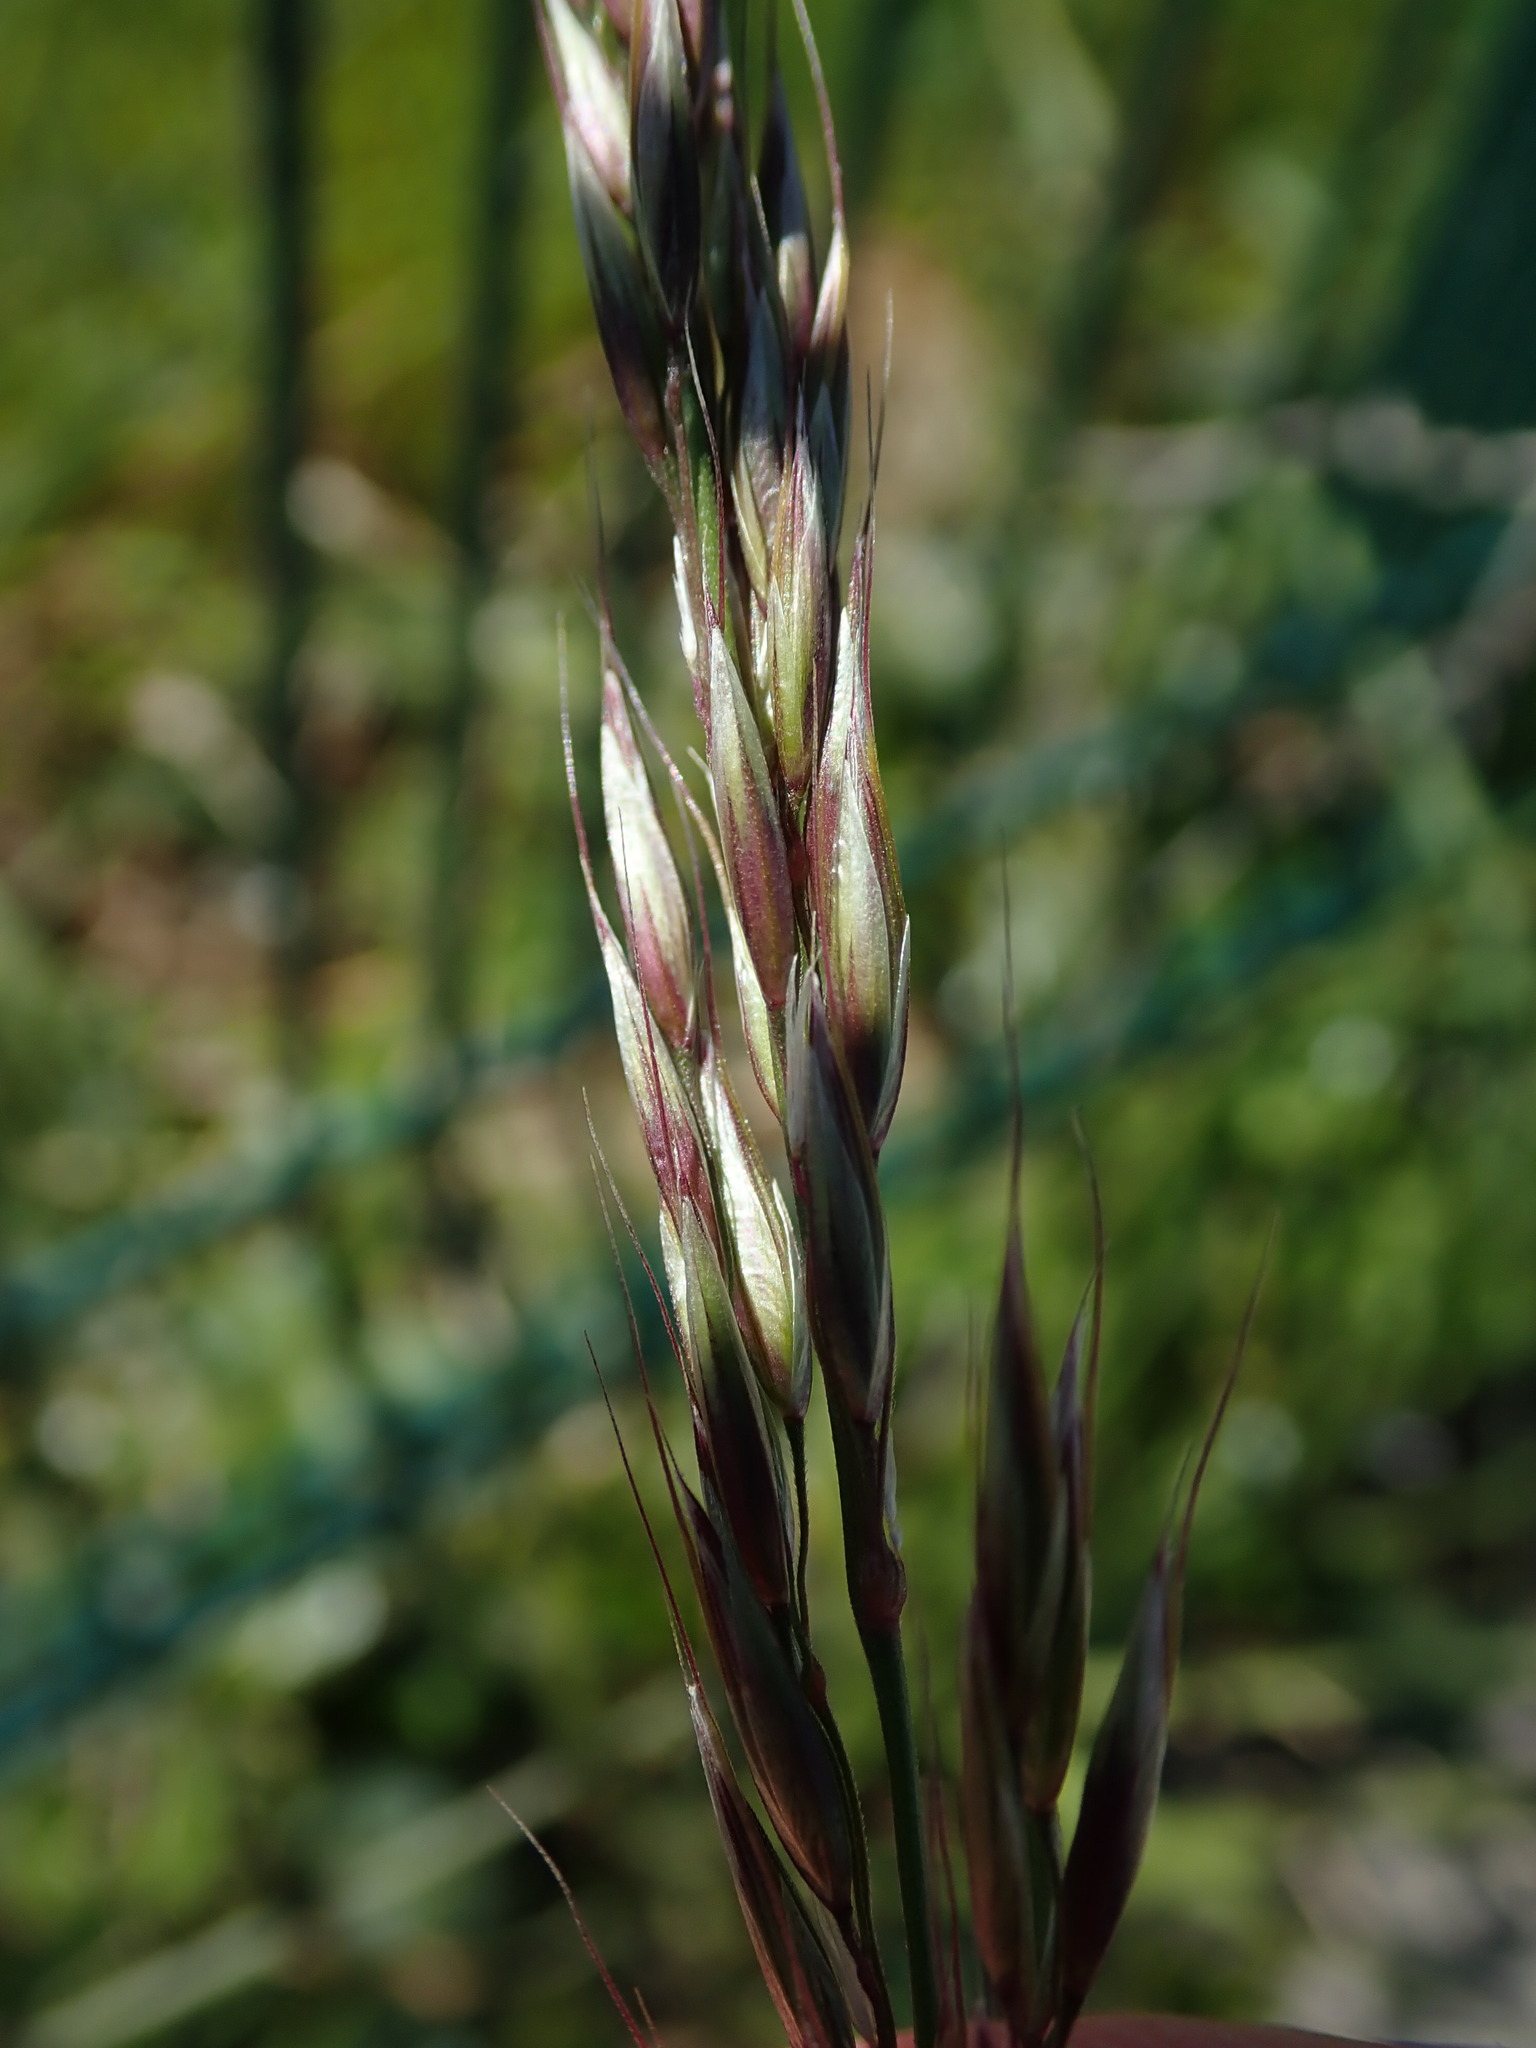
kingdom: Plantae
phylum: Tracheophyta
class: Liliopsida
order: Poales
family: Poaceae
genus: Arrhenatherum
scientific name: Arrhenatherum elatius
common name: Tall oatgrass
